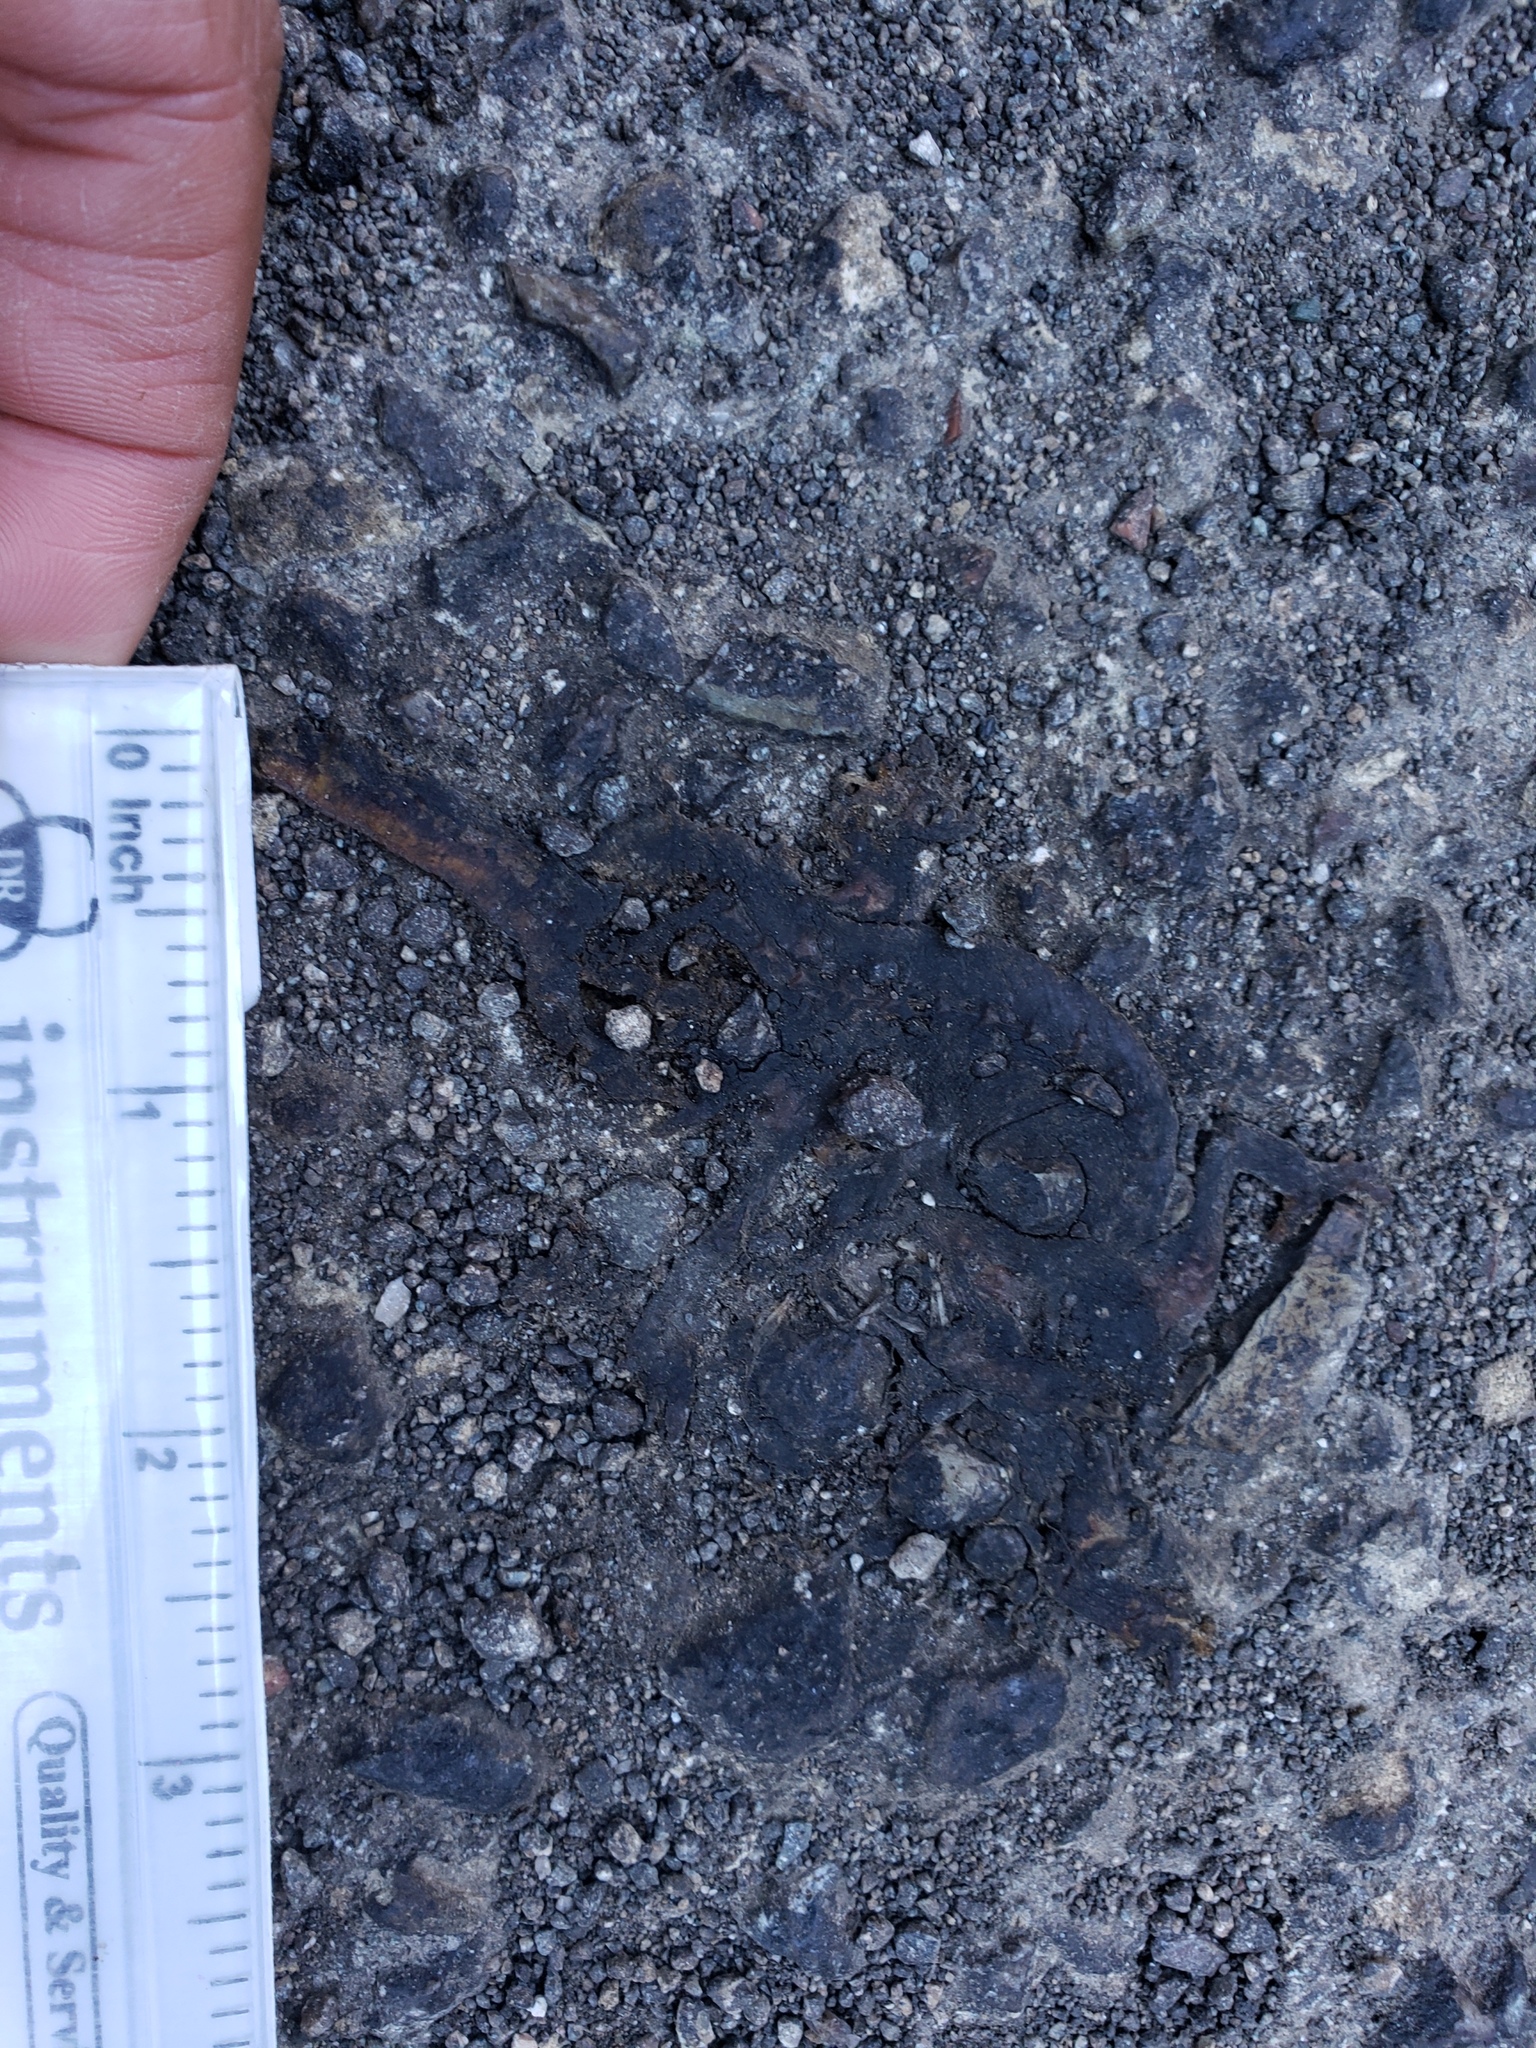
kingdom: Animalia
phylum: Chordata
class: Amphibia
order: Caudata
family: Salamandridae
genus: Taricha
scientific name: Taricha
